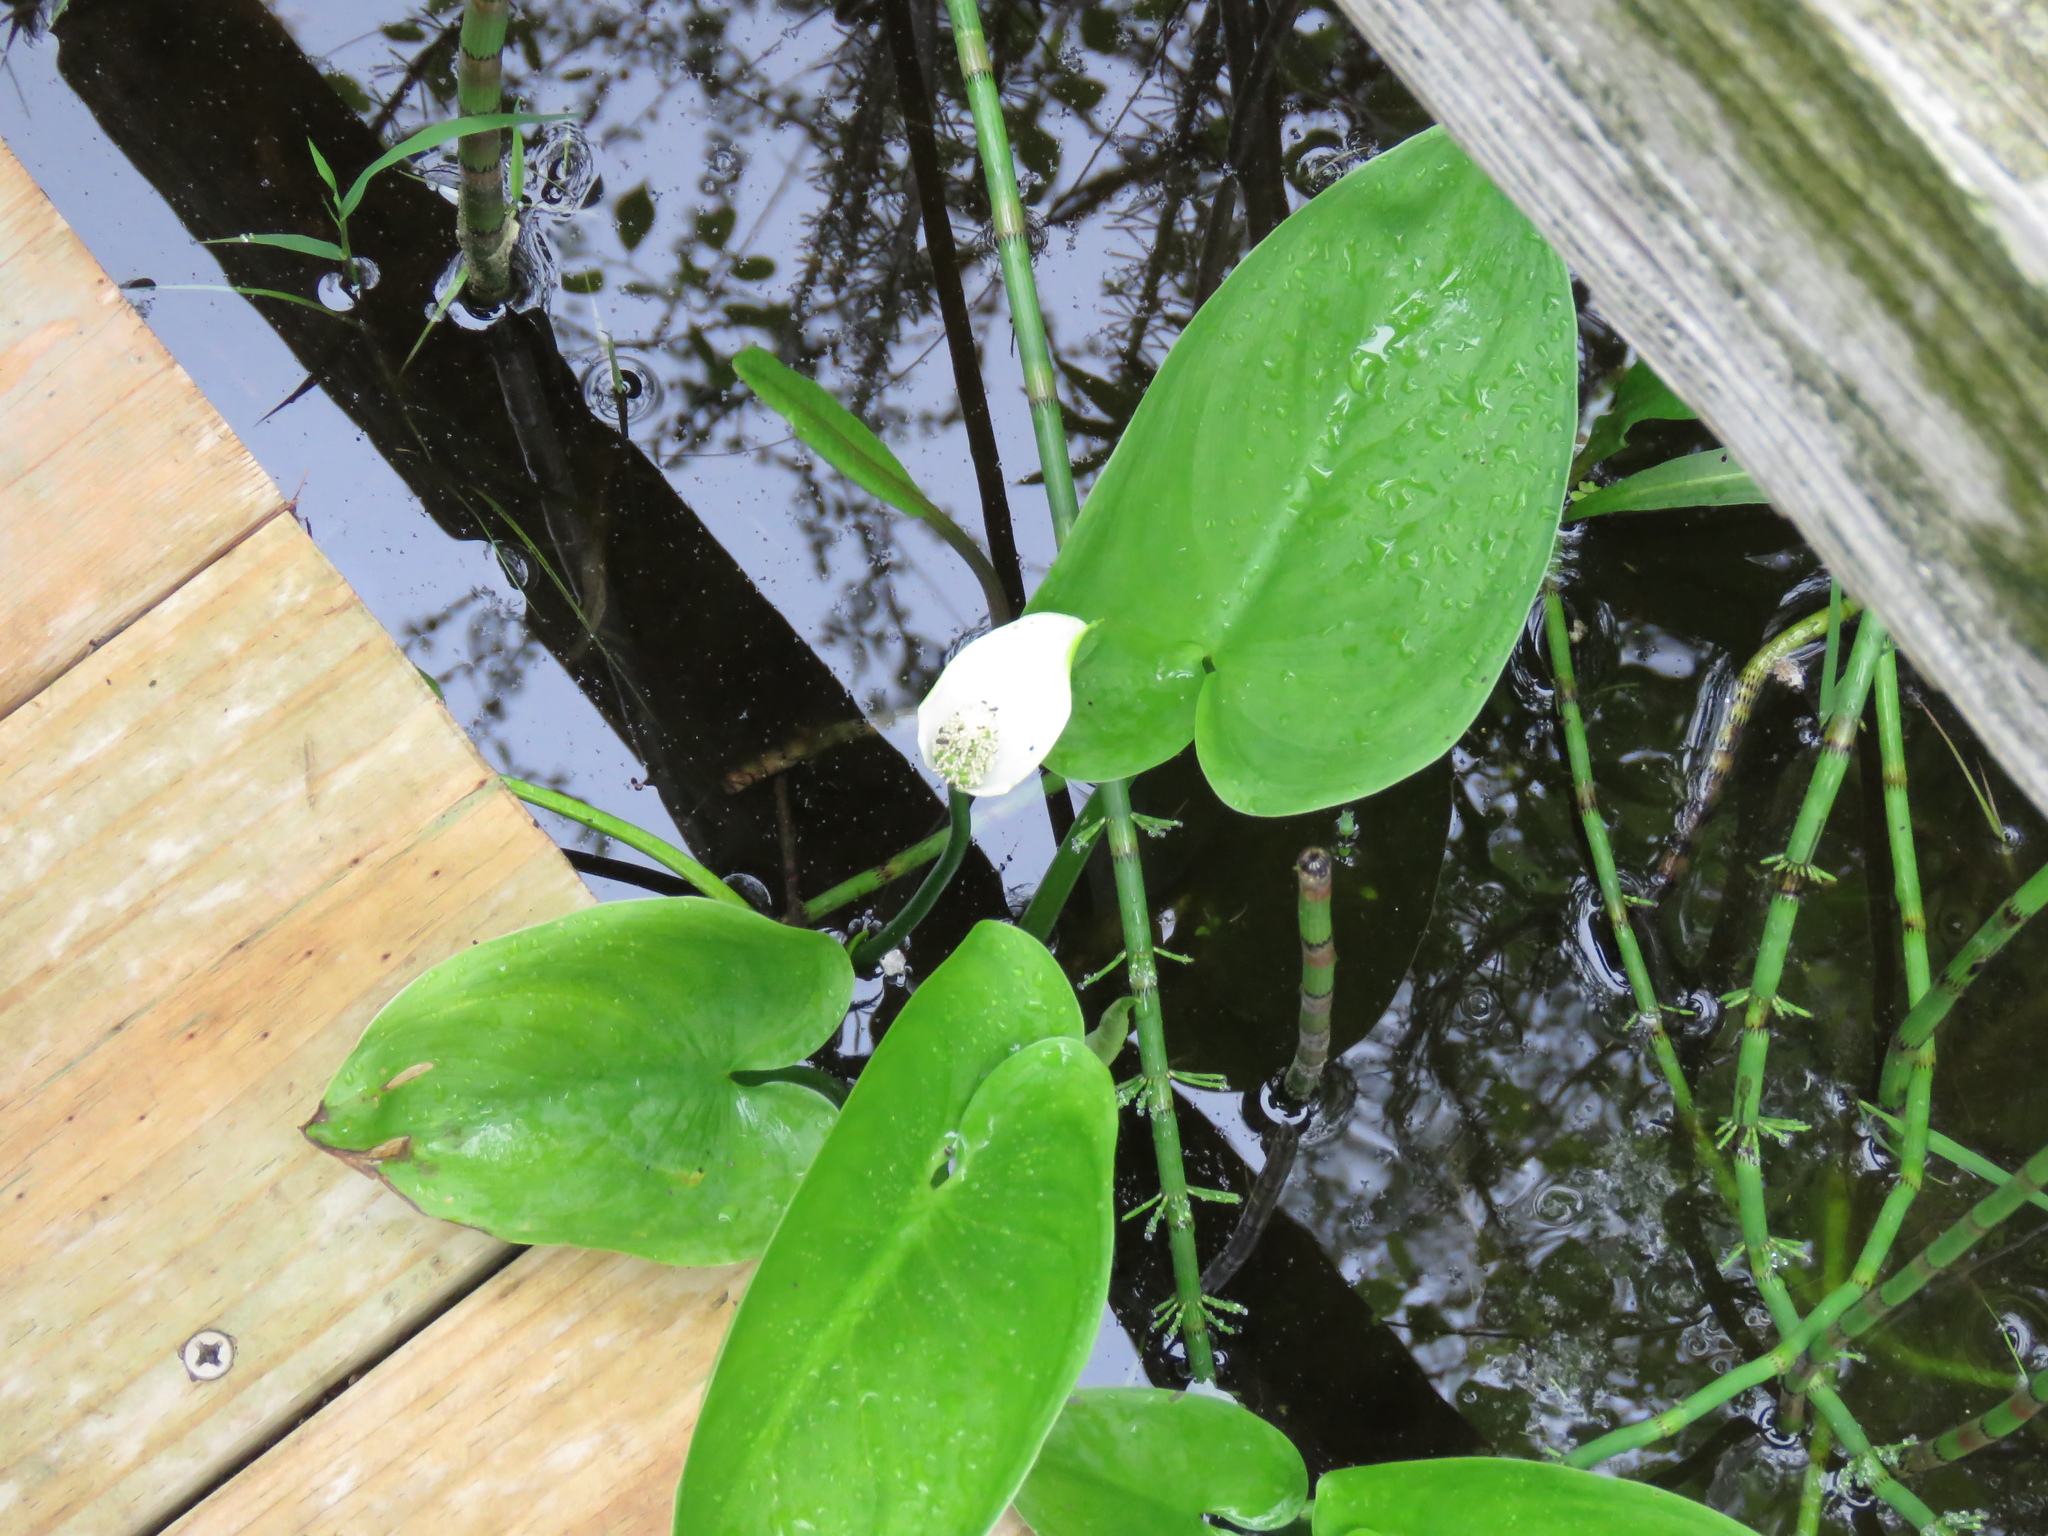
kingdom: Plantae
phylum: Tracheophyta
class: Liliopsida
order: Alismatales
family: Araceae
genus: Calla
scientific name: Calla palustris
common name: Bog arum
